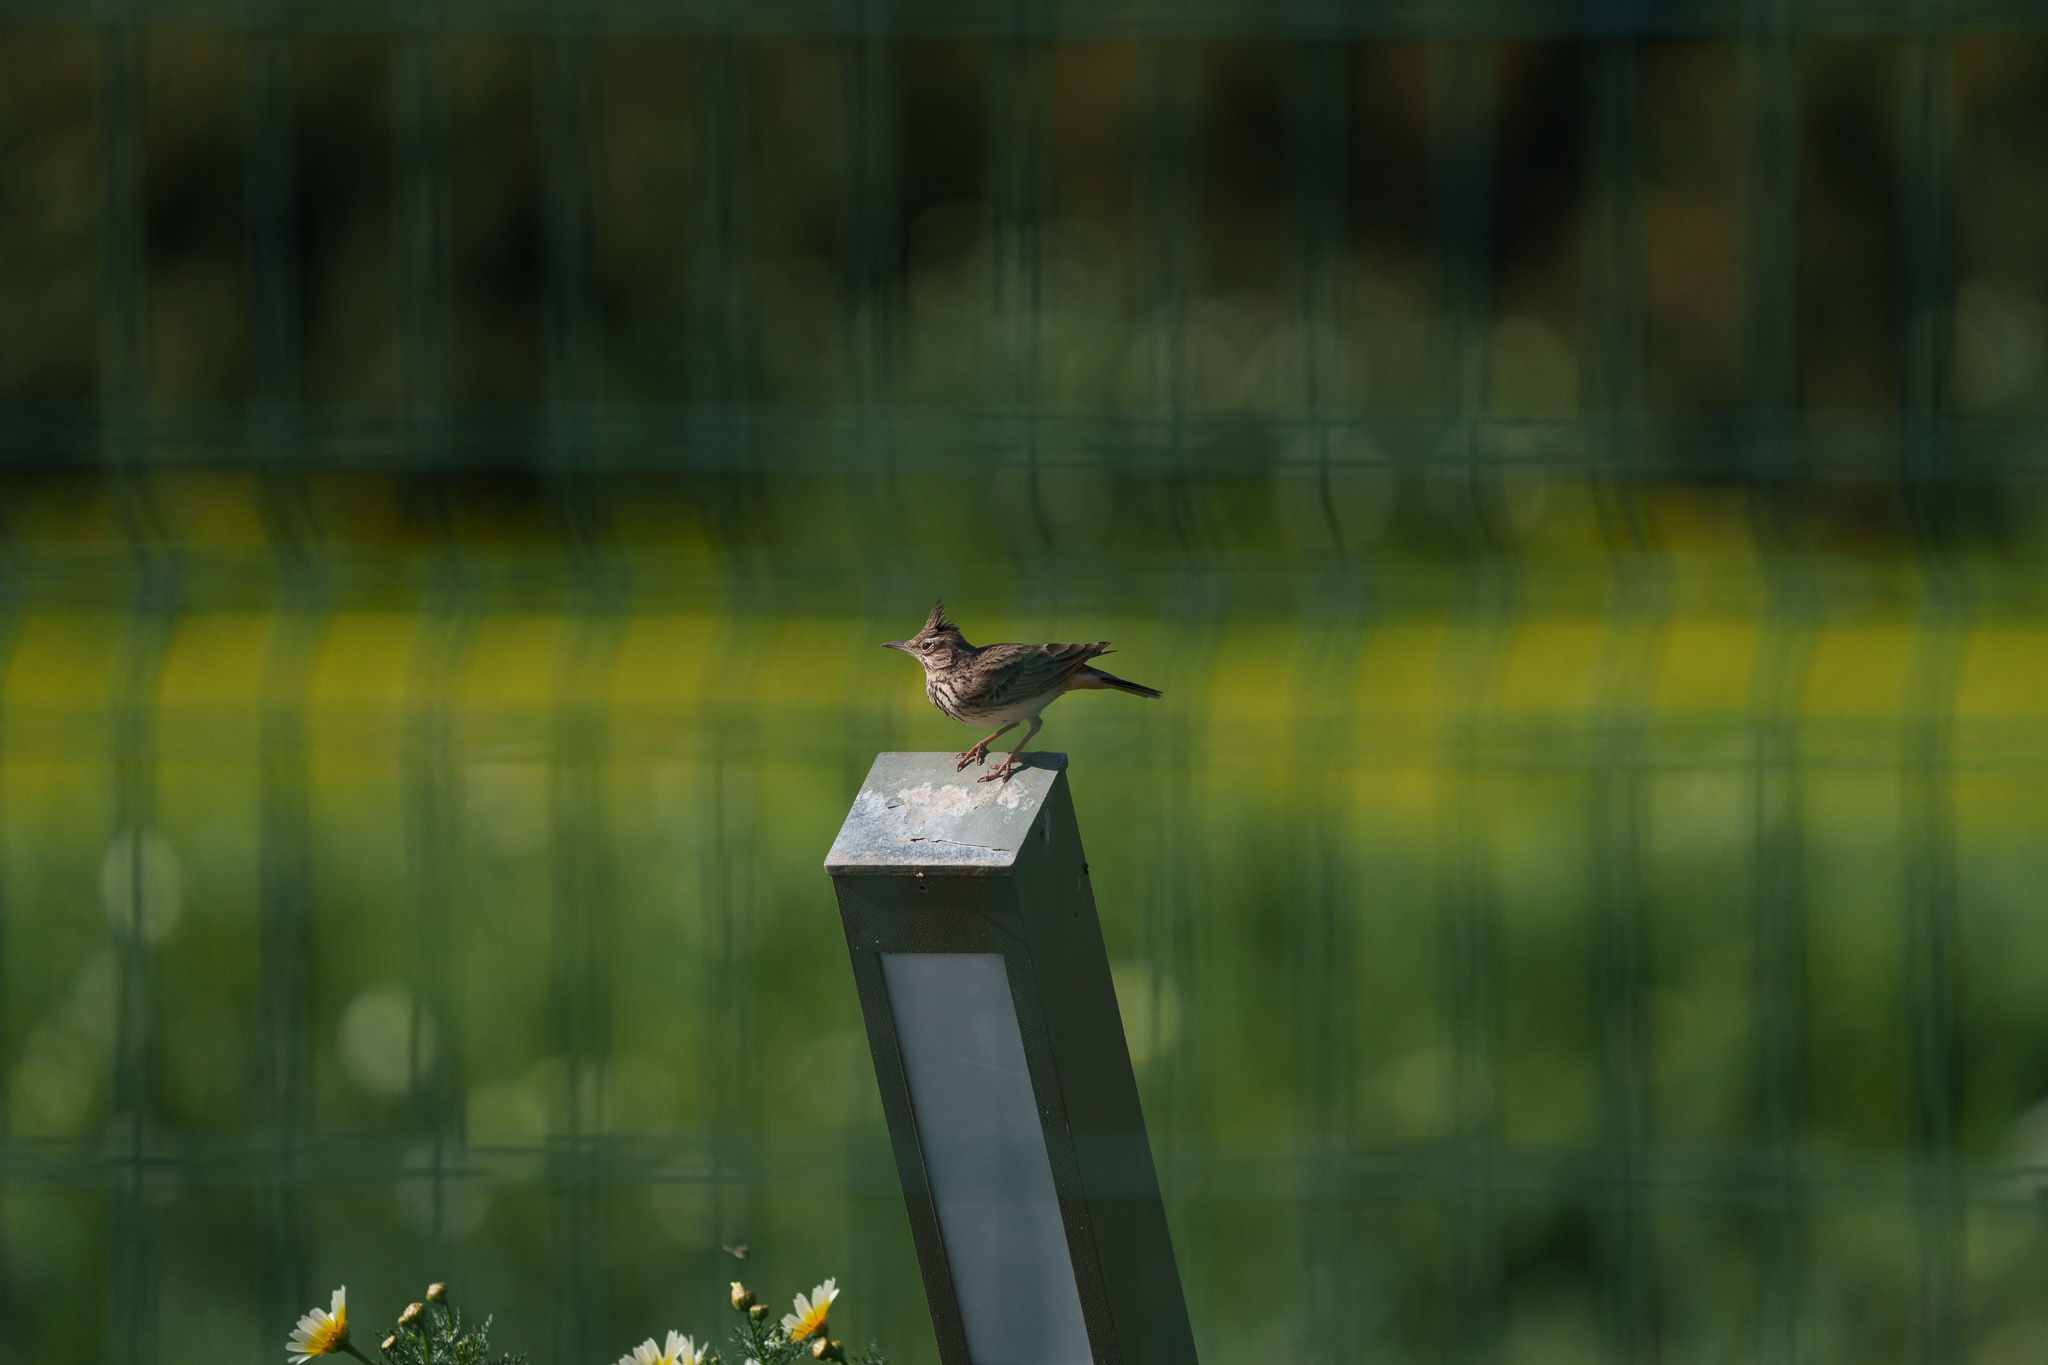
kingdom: Animalia
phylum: Chordata
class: Aves
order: Passeriformes
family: Alaudidae
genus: Galerida
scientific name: Galerida cristata
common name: Crested lark
